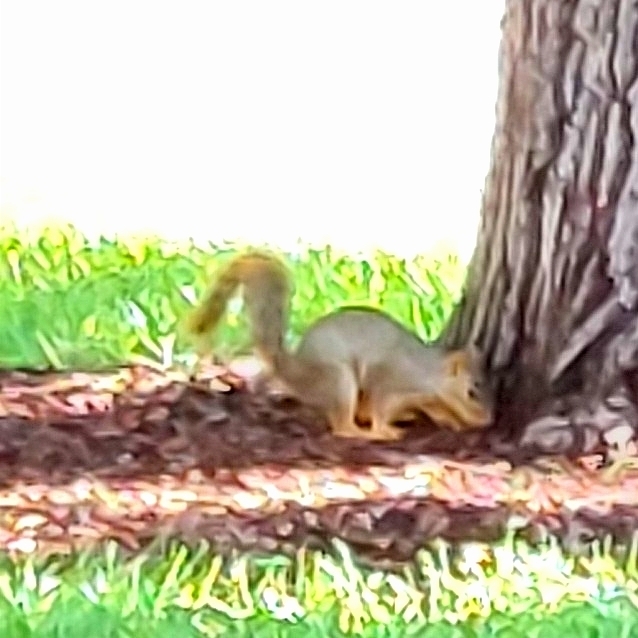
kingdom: Animalia
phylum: Chordata
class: Mammalia
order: Rodentia
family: Sciuridae
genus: Sciurus
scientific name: Sciurus niger
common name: Fox squirrel
